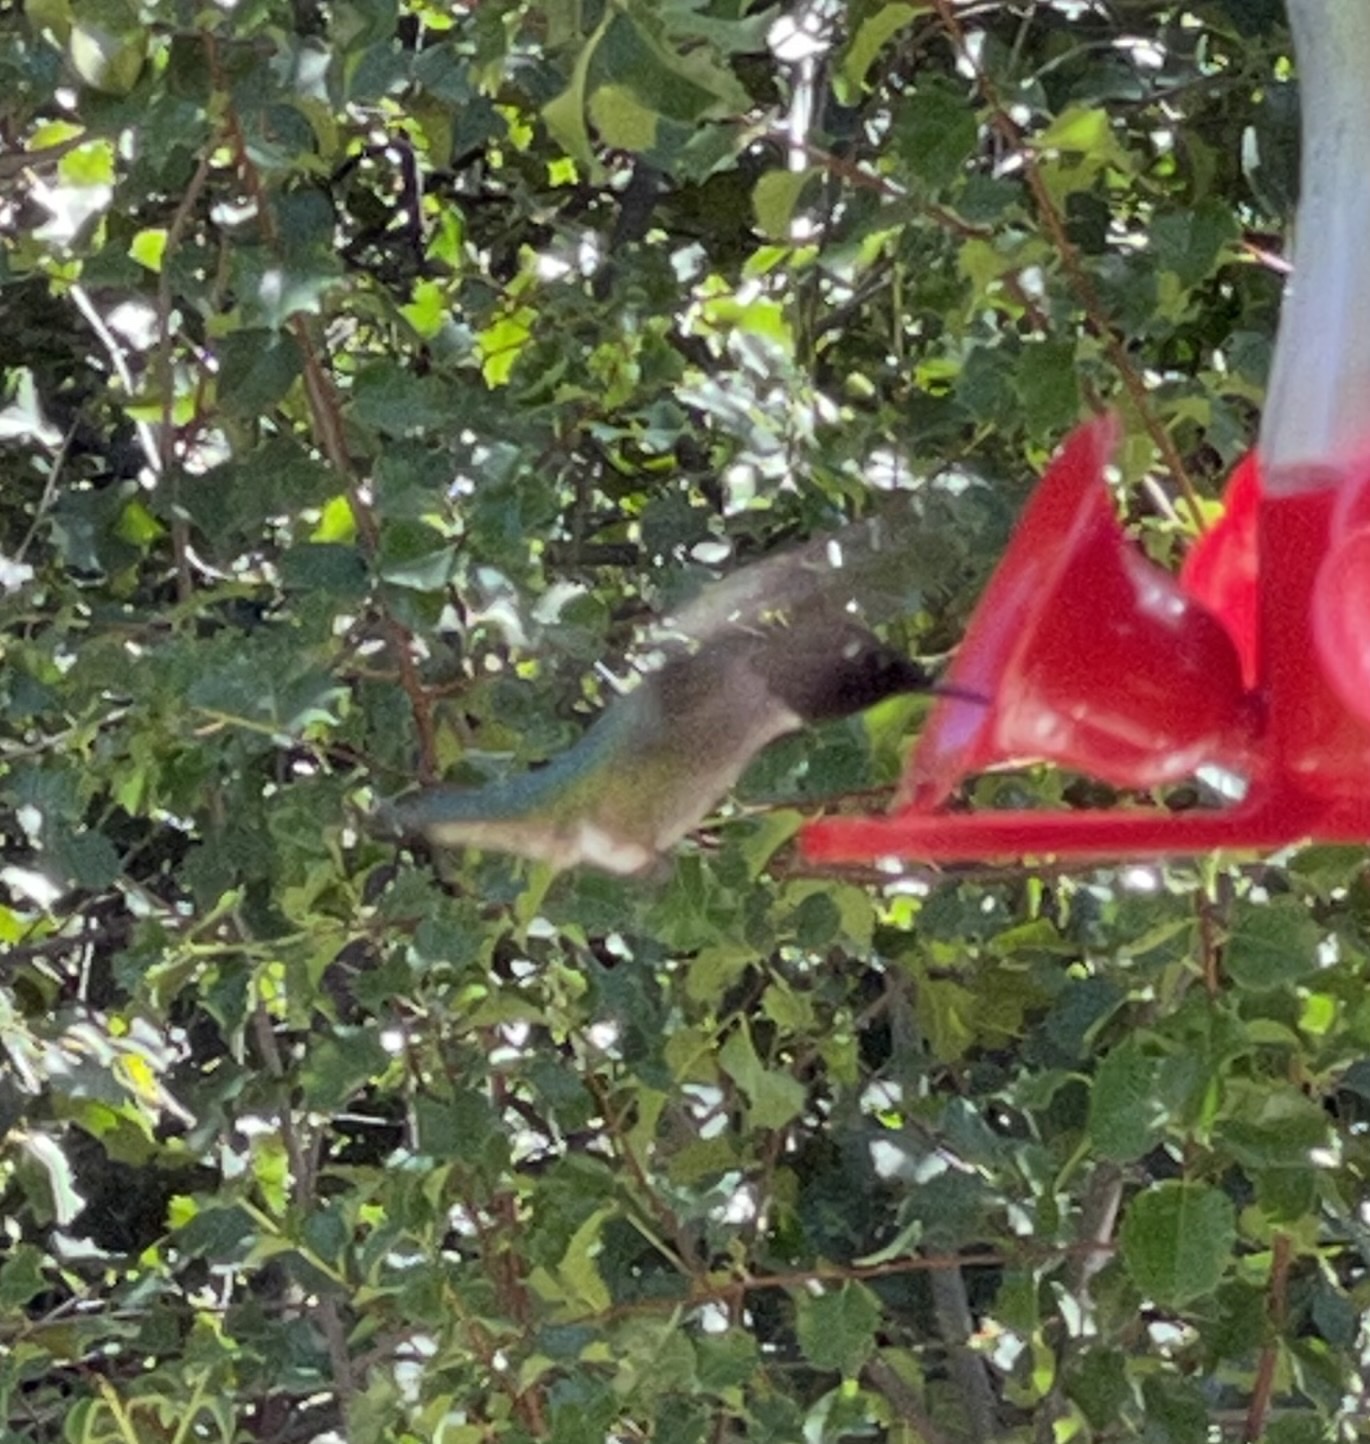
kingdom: Animalia
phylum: Chordata
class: Aves
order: Apodiformes
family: Trochilidae
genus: Calypte
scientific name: Calypte anna
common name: Anna's hummingbird
